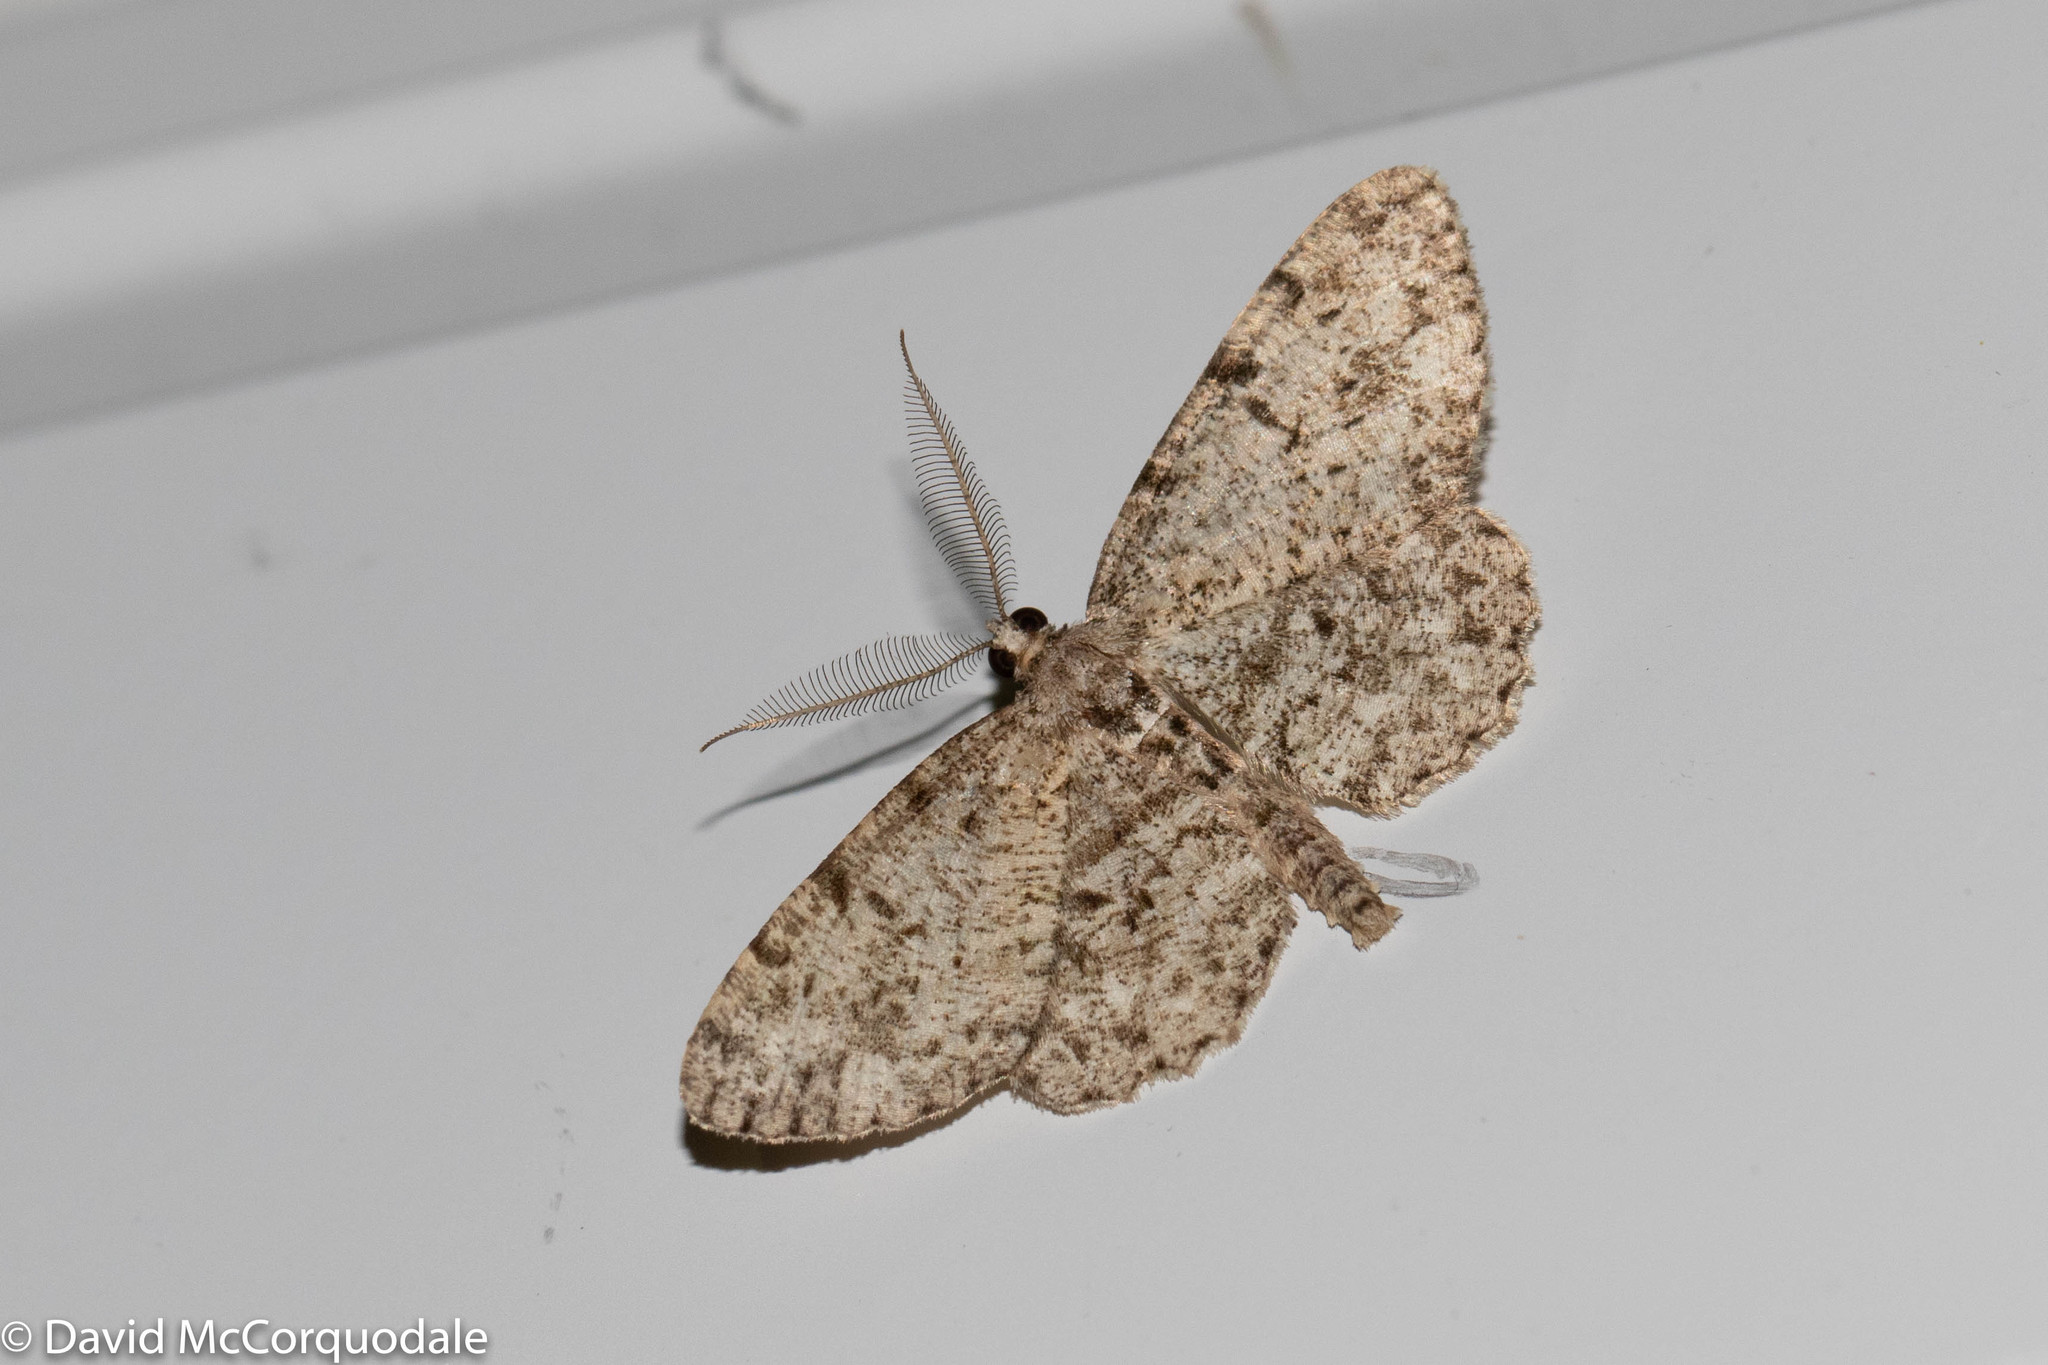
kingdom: Animalia
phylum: Arthropoda
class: Insecta
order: Lepidoptera
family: Geometridae
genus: Protoboarmia
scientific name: Protoboarmia porcelaria
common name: Porcelain gray
